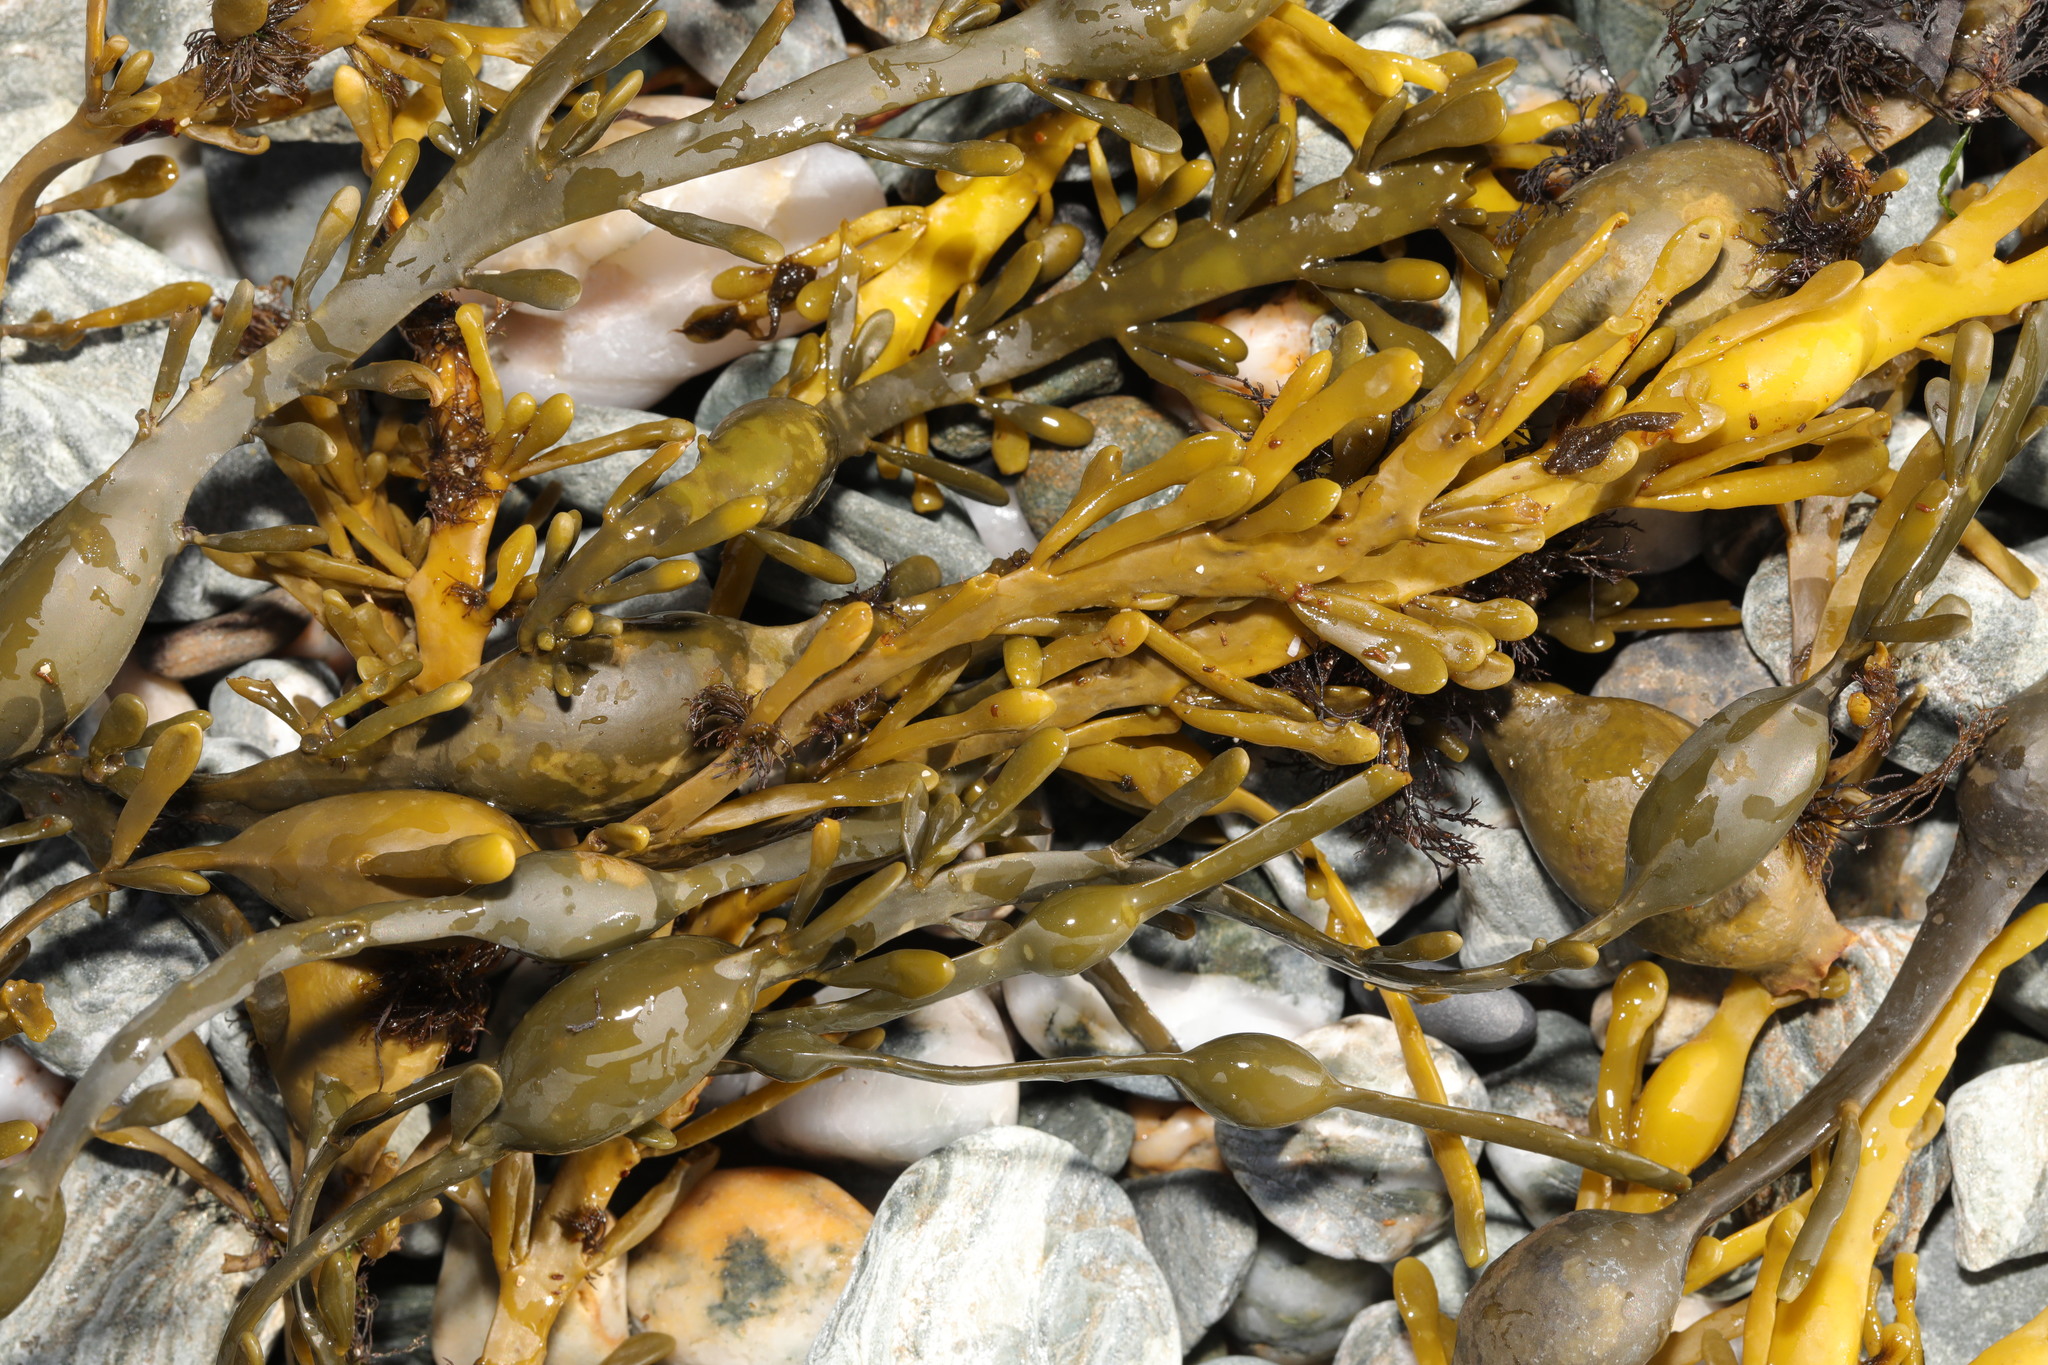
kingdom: Chromista
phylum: Ochrophyta
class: Phaeophyceae
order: Fucales
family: Fucaceae
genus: Ascophyllum
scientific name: Ascophyllum nodosum
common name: Knotted wrack
